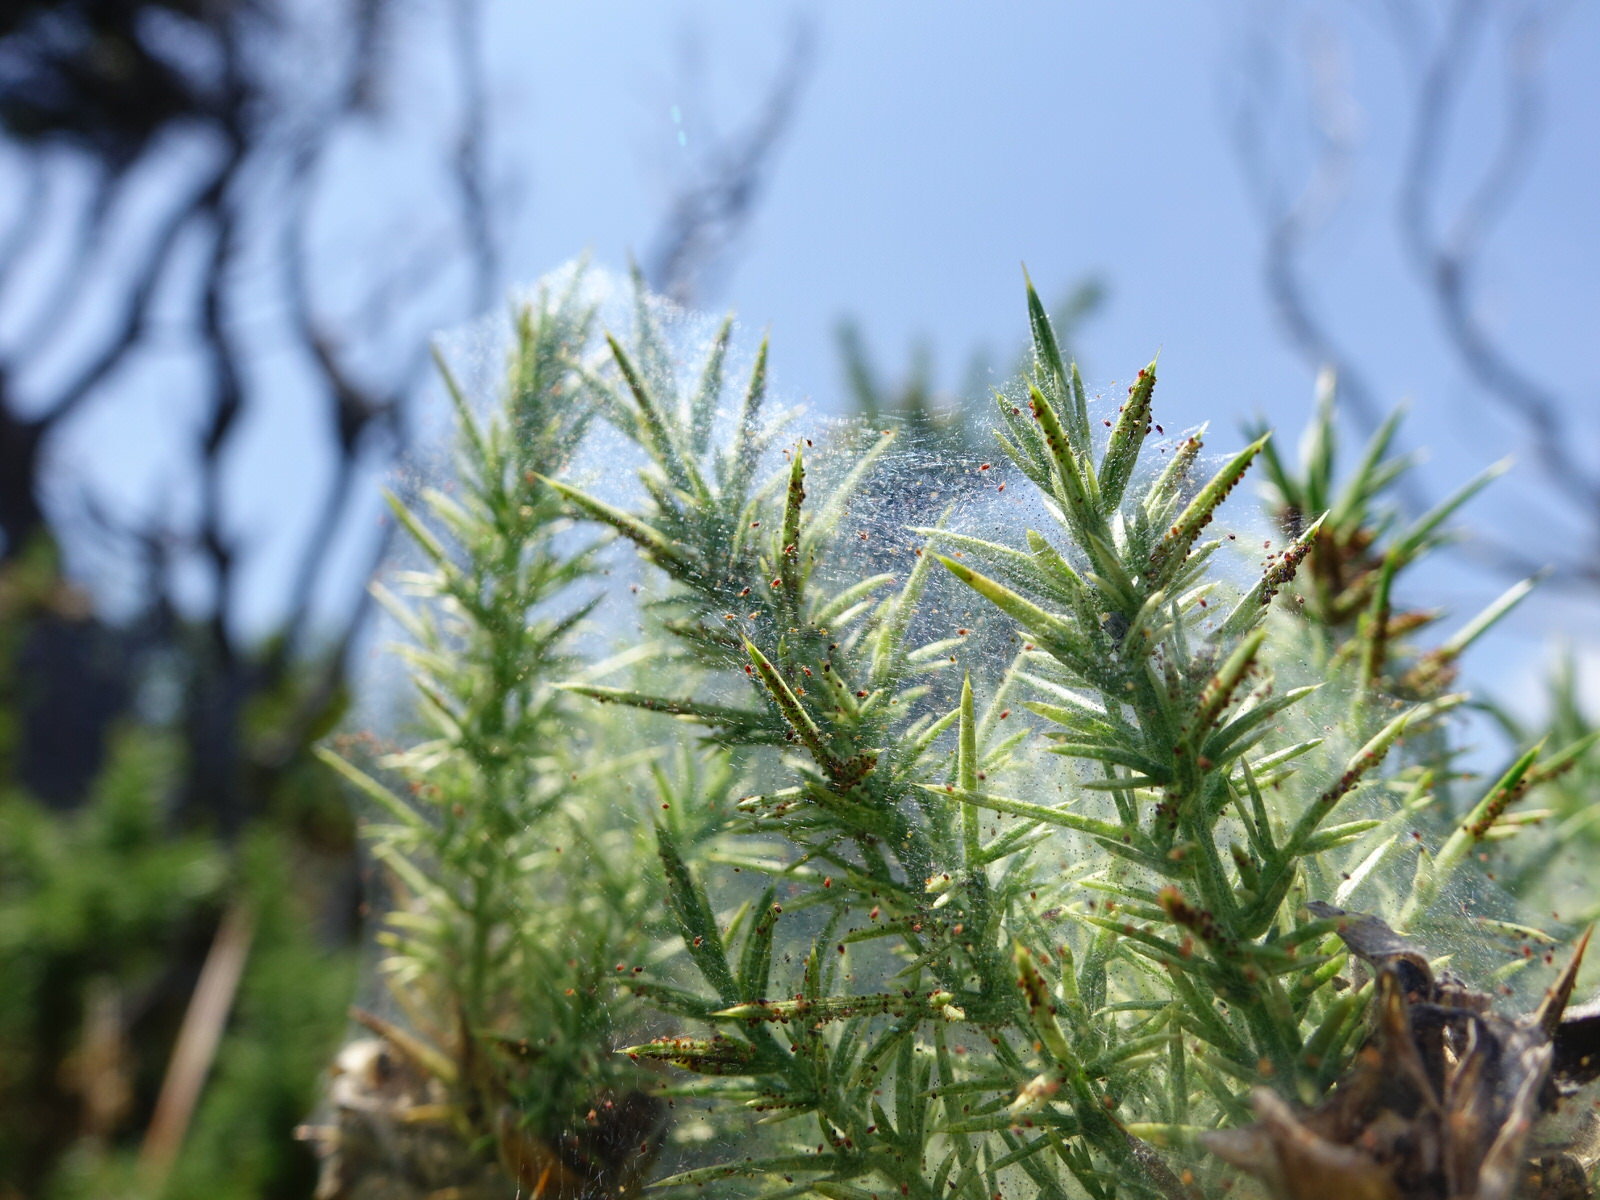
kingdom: Animalia
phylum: Arthropoda
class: Arachnida
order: Trombidiformes
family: Tetranychidae
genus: Tetranychus
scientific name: Tetranychus lintearius
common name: Gorse spider mite
